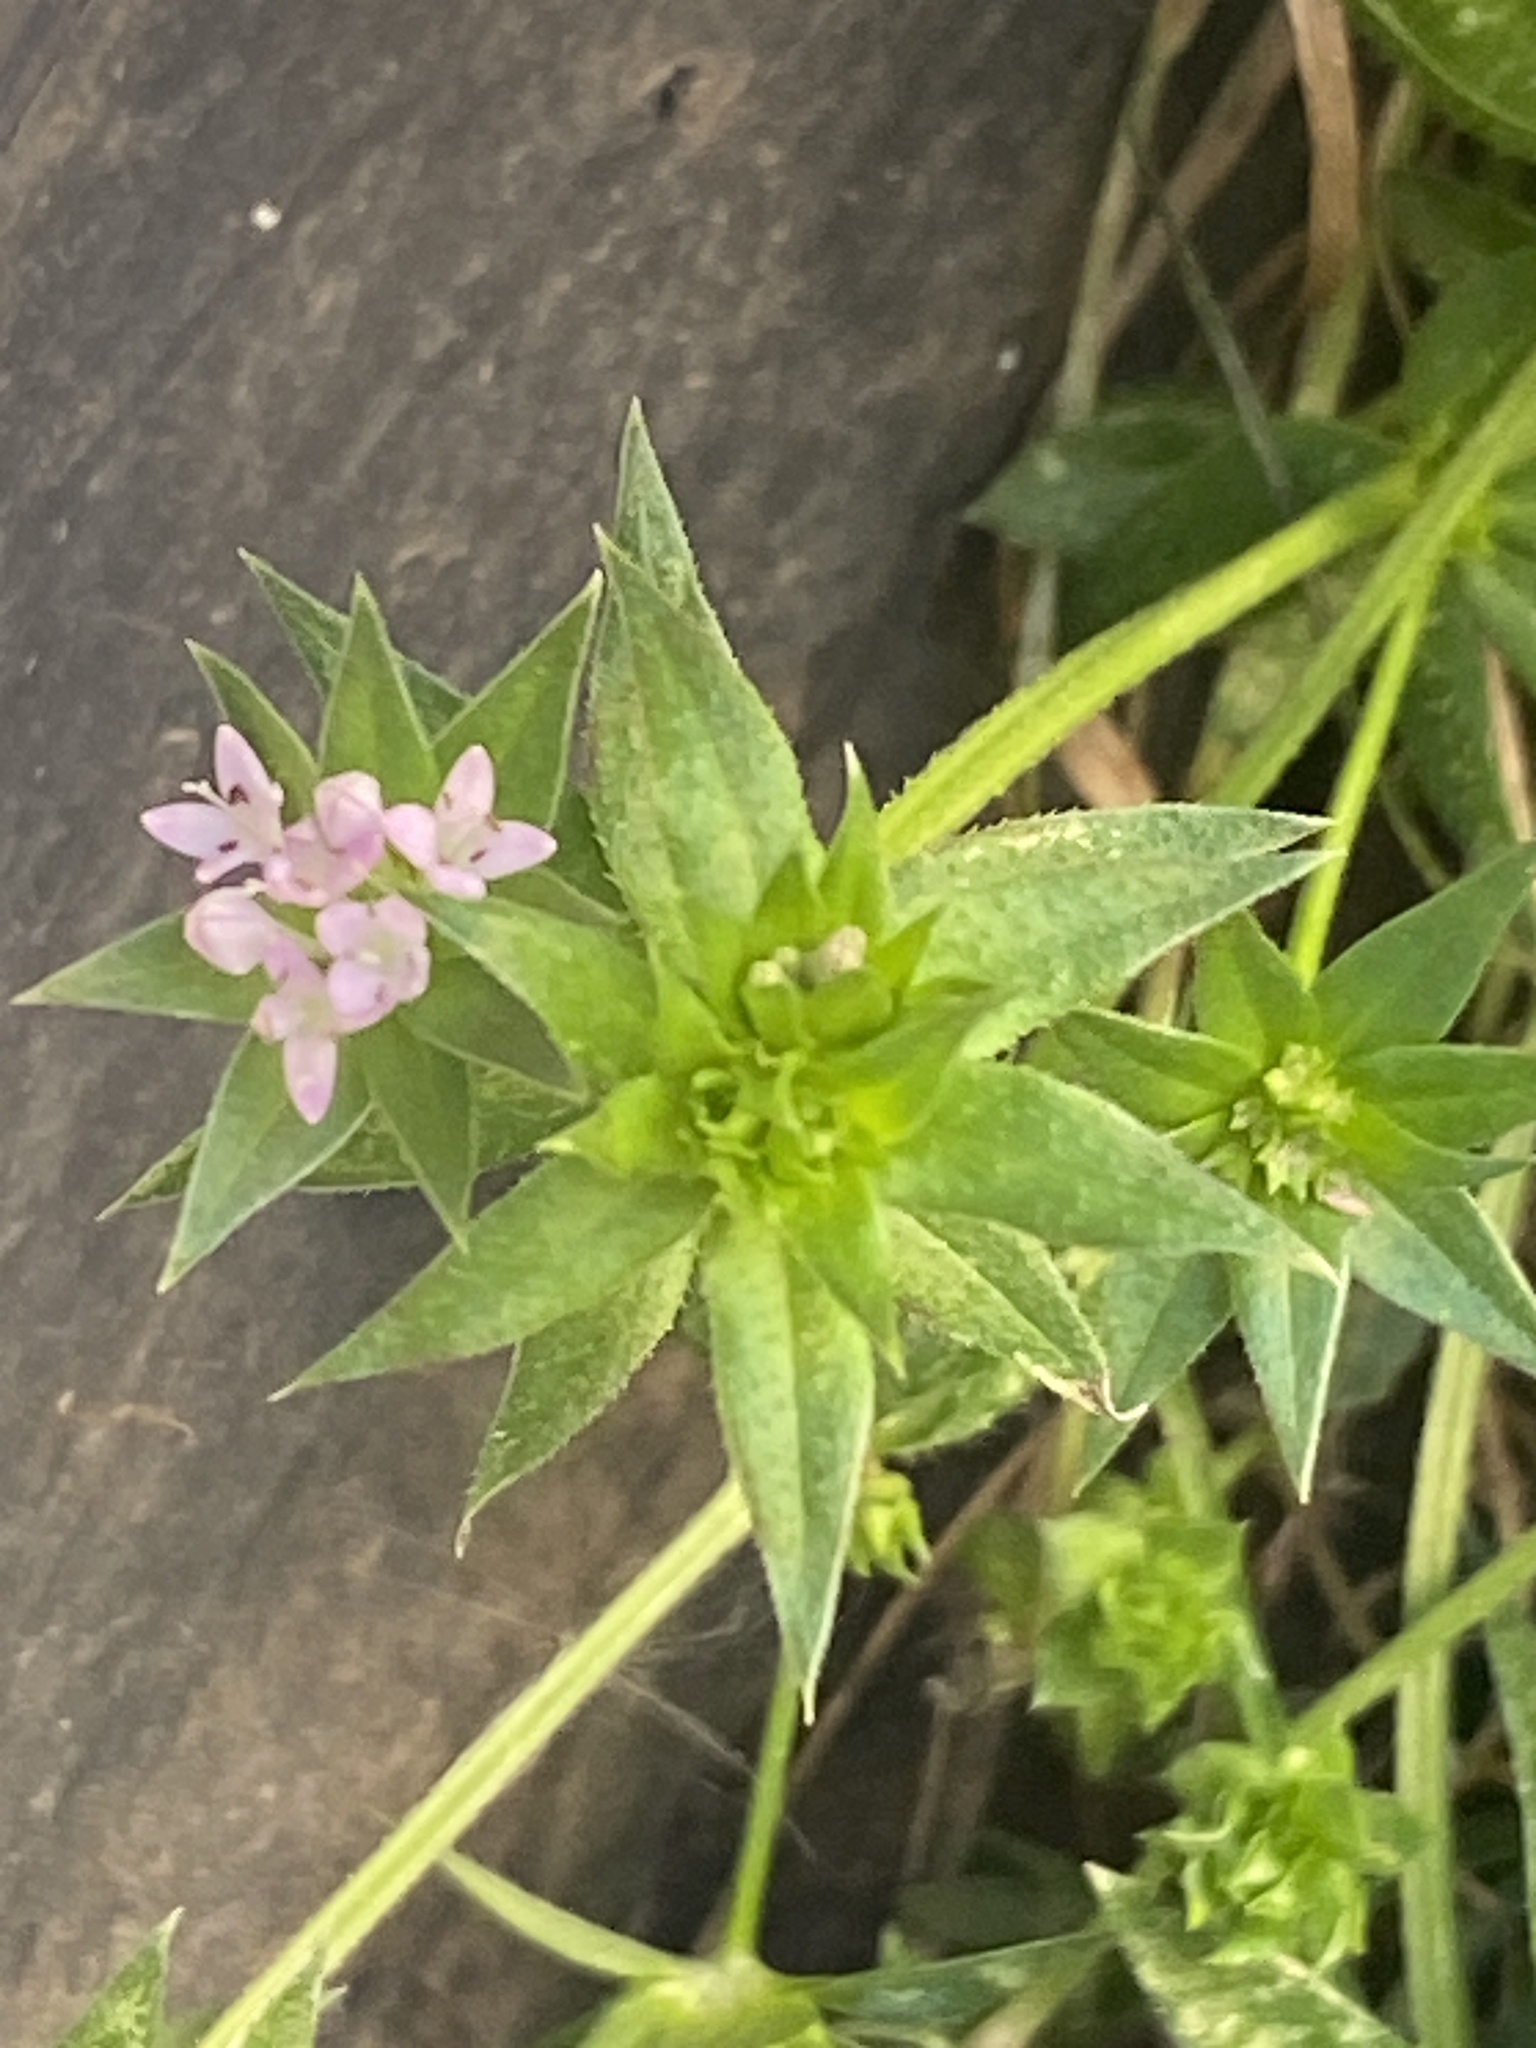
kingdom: Plantae
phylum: Tracheophyta
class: Magnoliopsida
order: Gentianales
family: Rubiaceae
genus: Sherardia
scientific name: Sherardia arvensis
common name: Field madder
